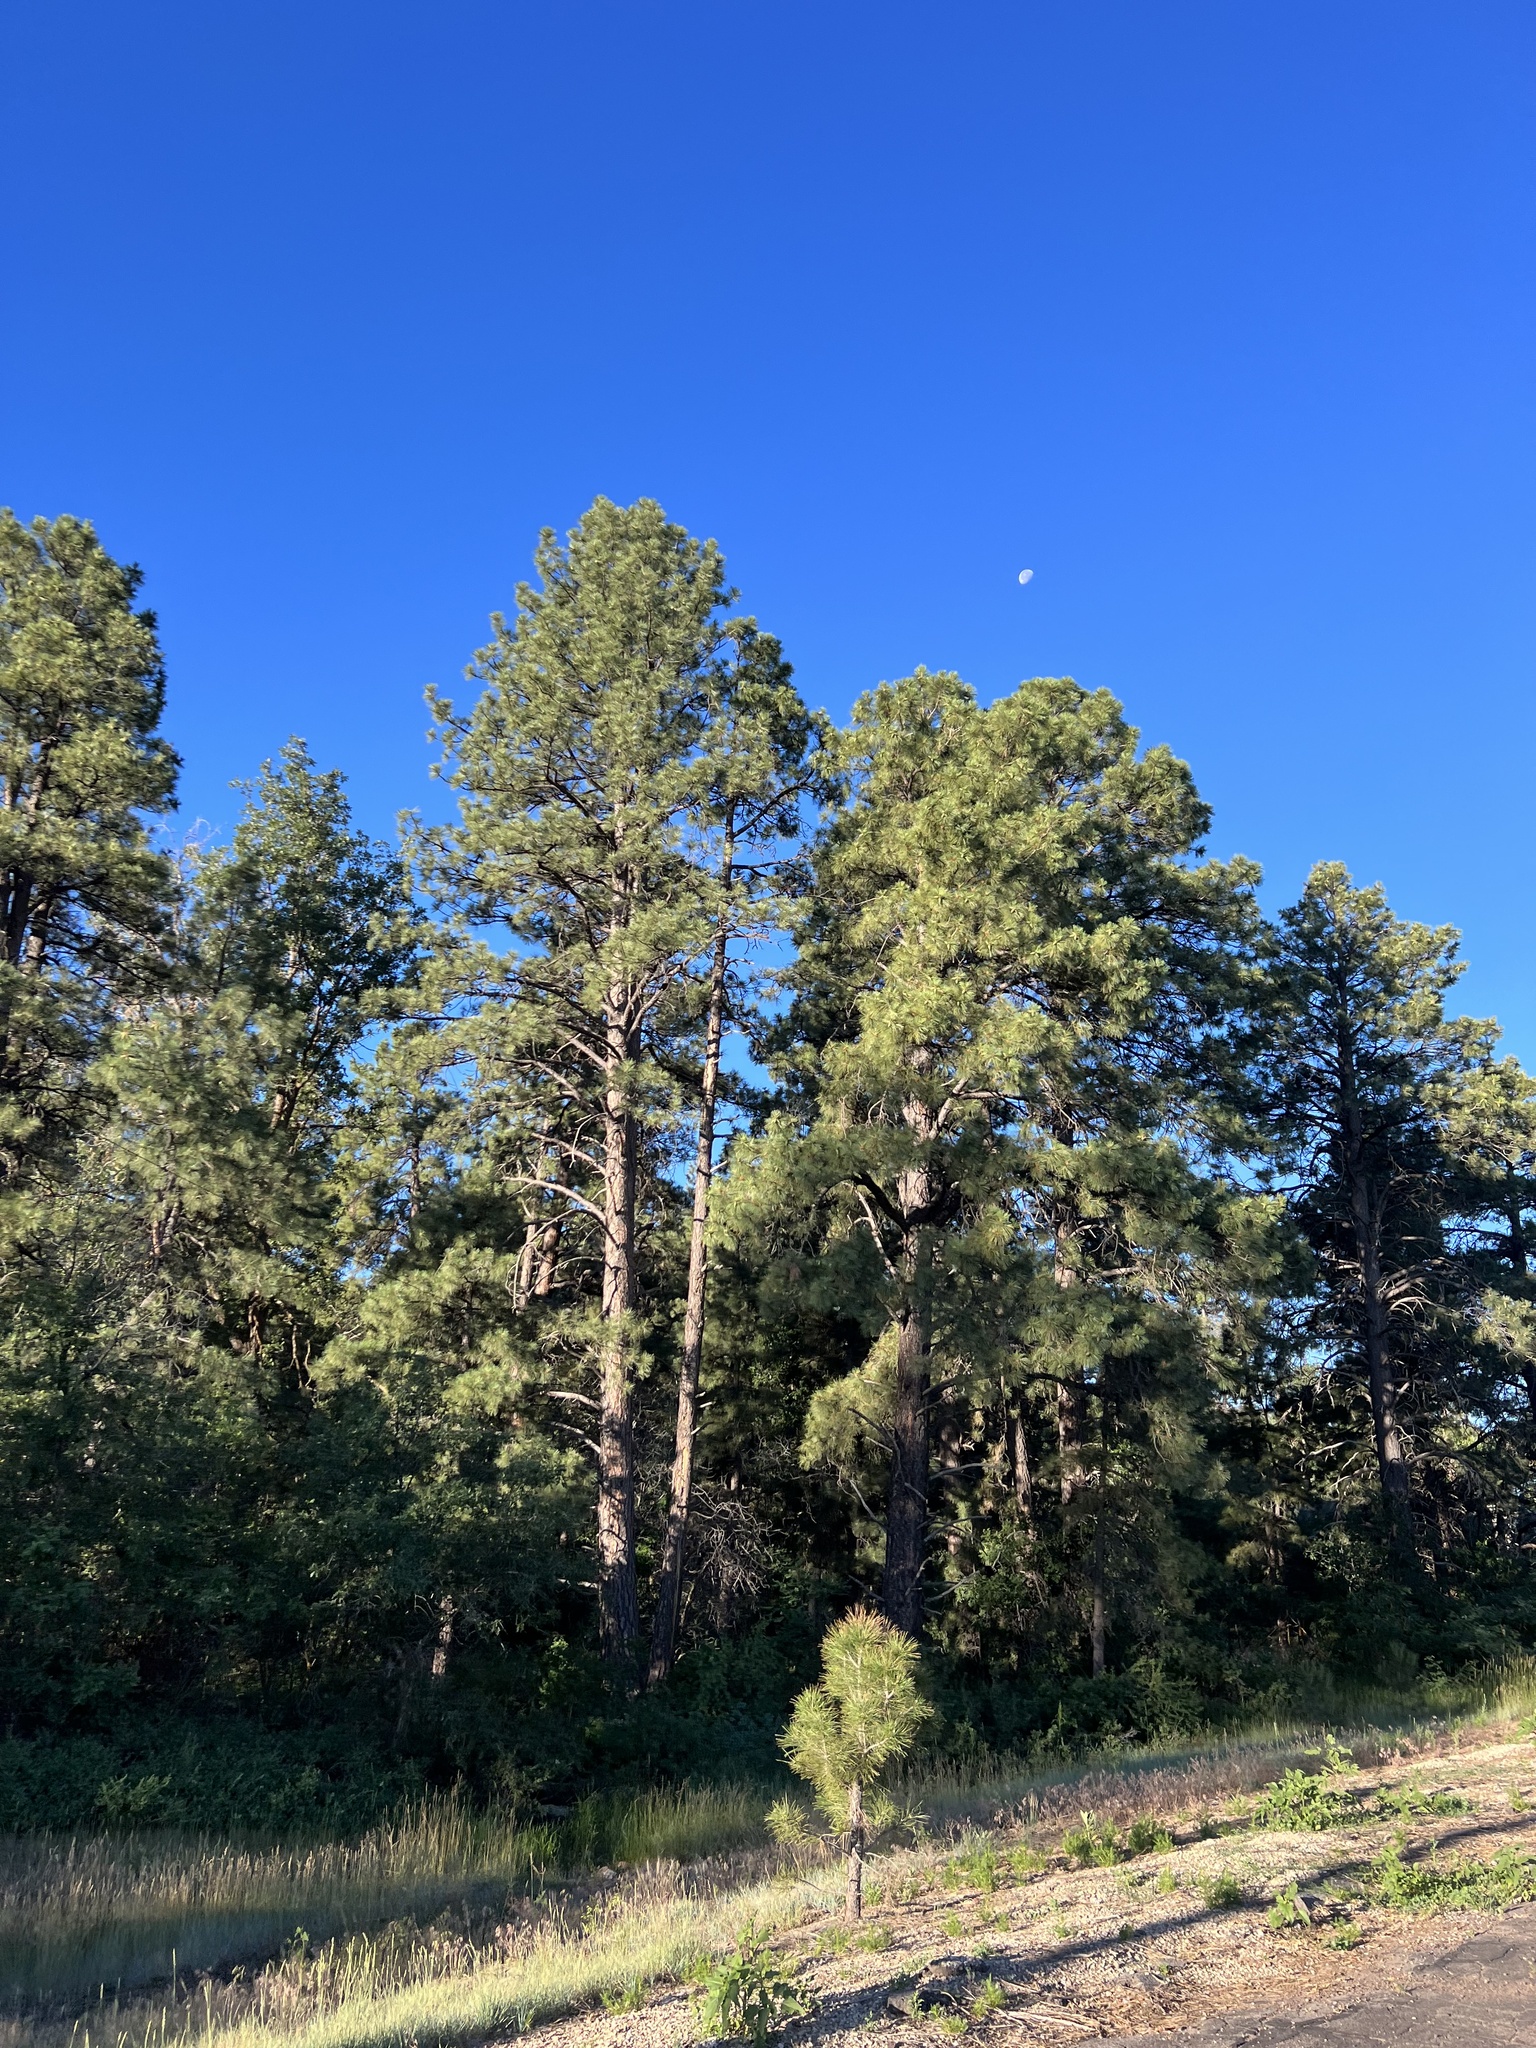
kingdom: Plantae
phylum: Tracheophyta
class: Pinopsida
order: Pinales
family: Pinaceae
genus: Pinus
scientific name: Pinus ponderosa
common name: Western yellow-pine
